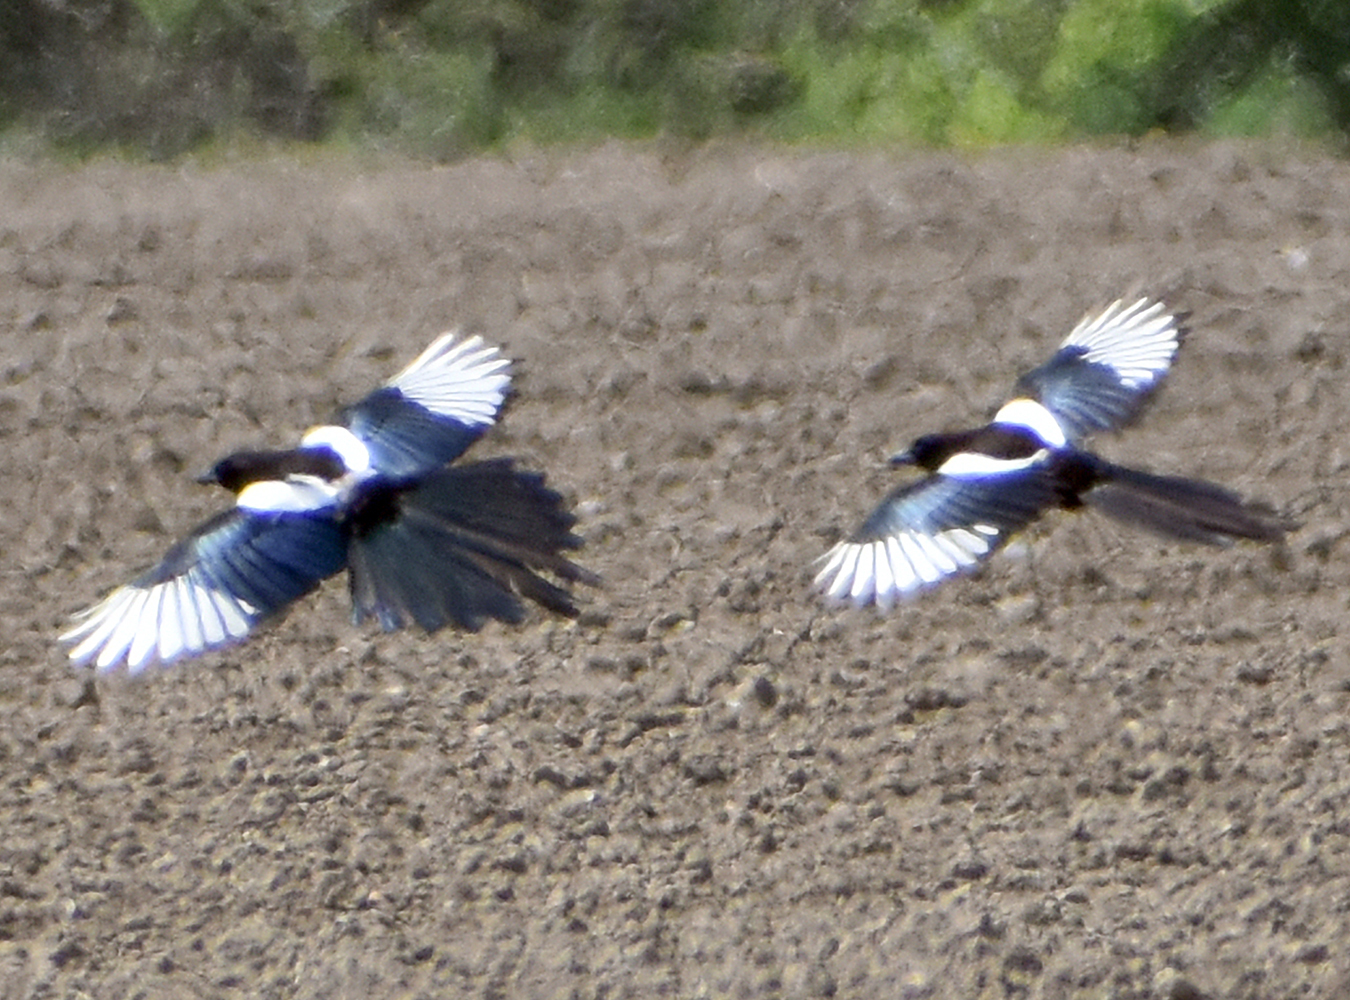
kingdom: Animalia
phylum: Chordata
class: Aves
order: Passeriformes
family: Corvidae
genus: Pica
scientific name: Pica pica
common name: Eurasian magpie
